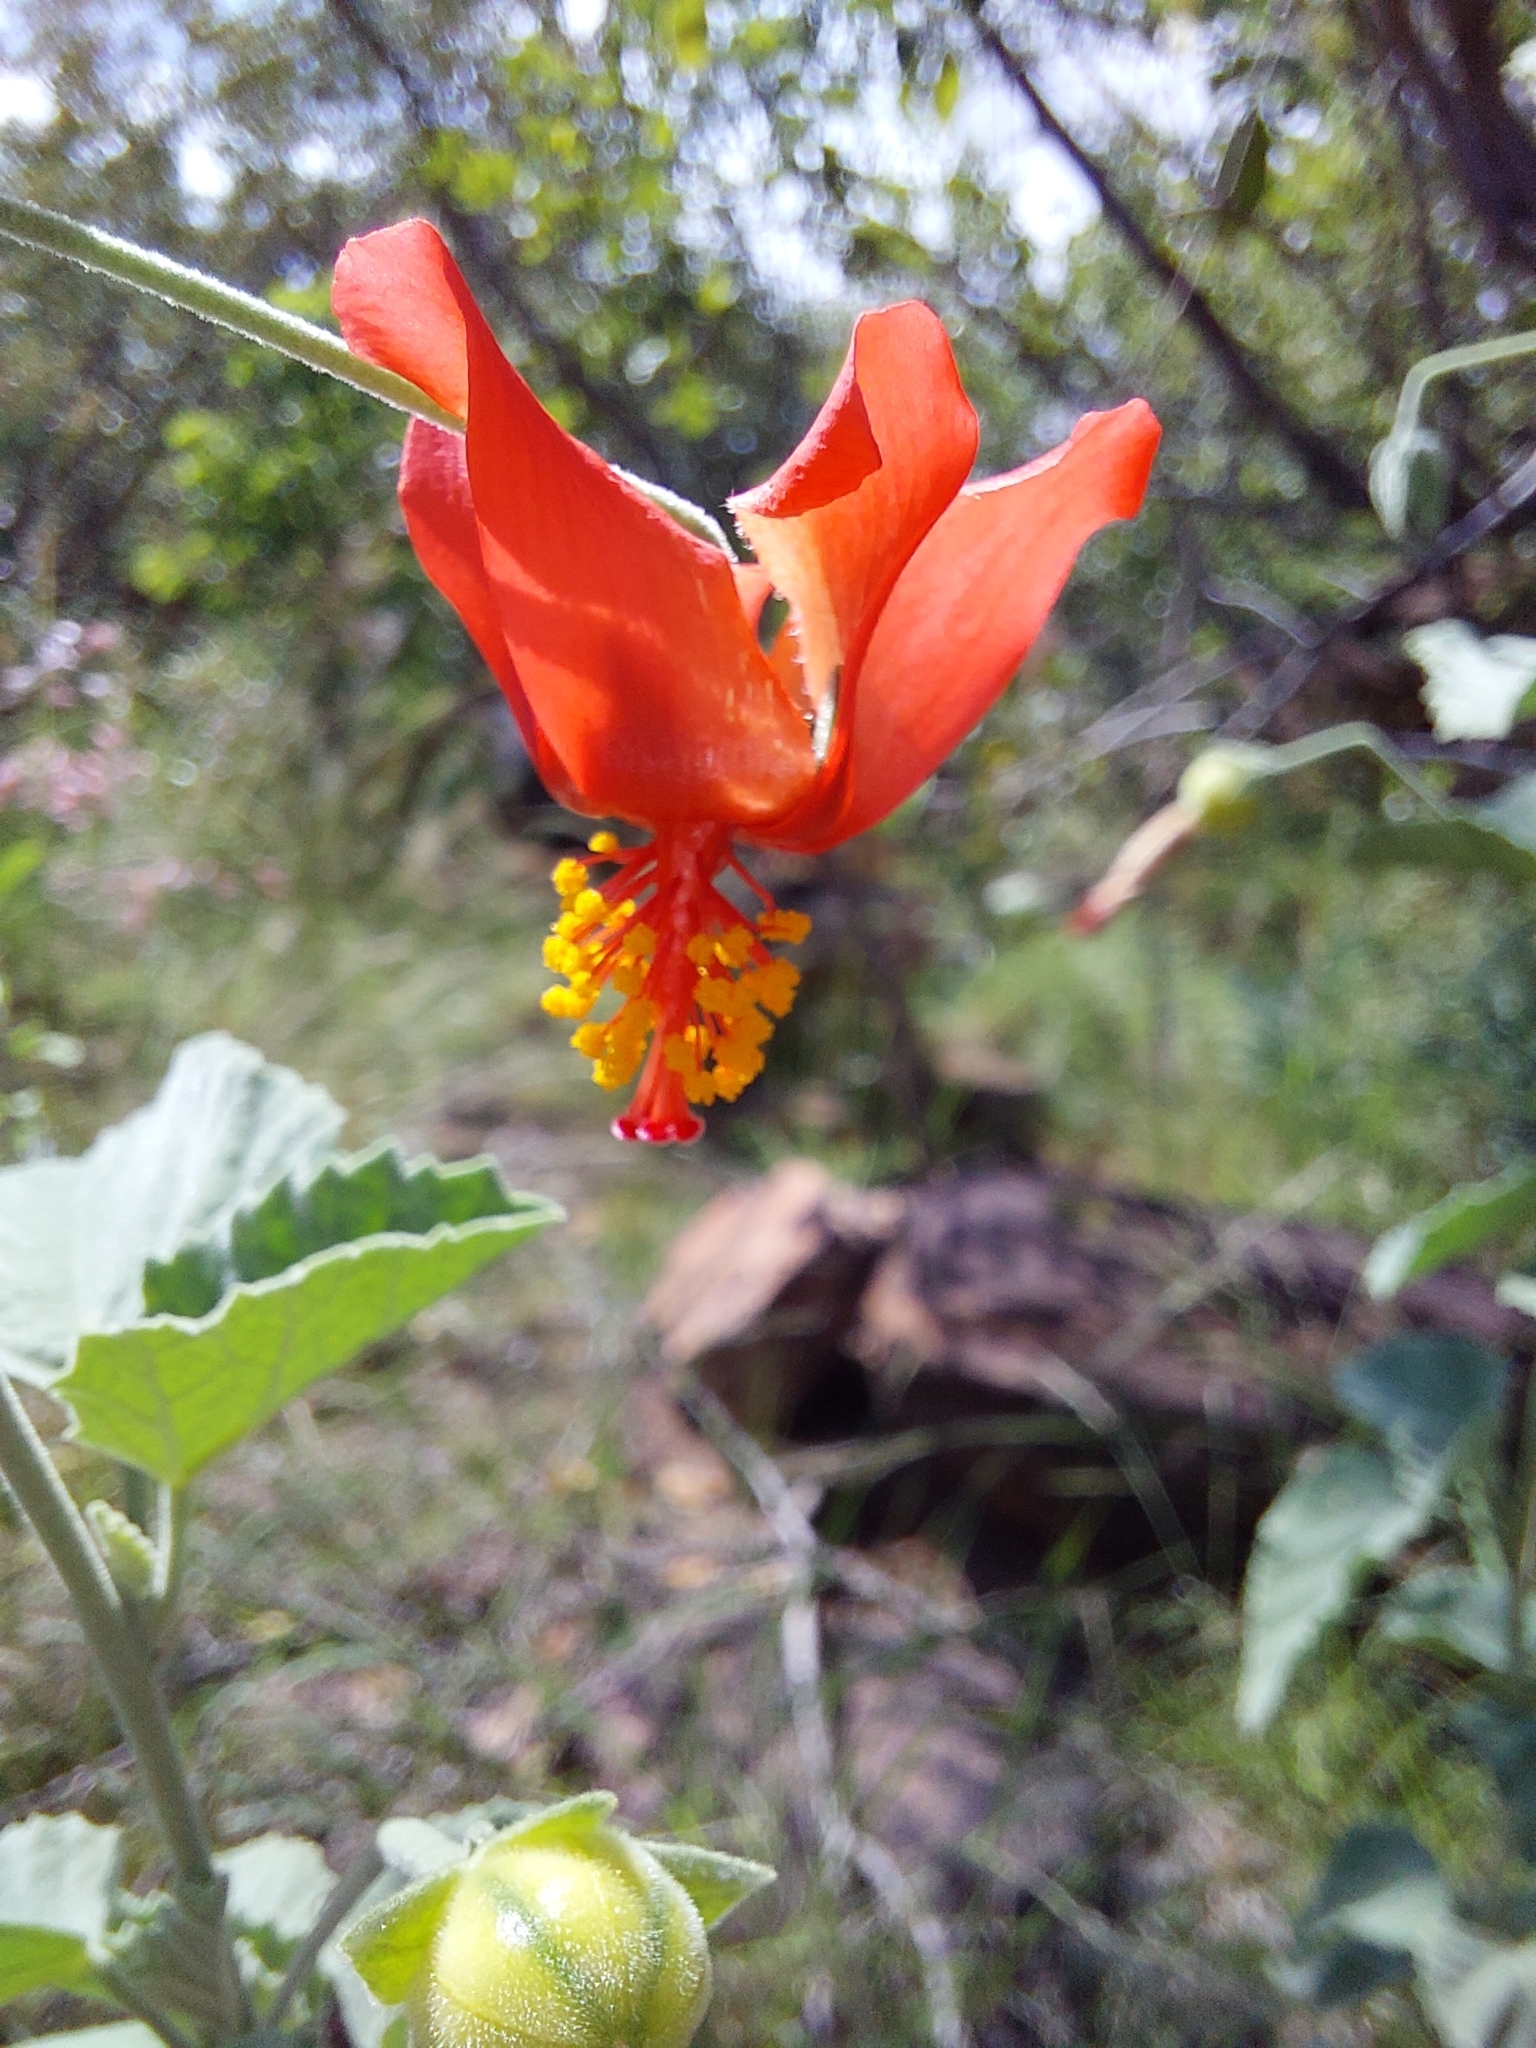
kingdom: Plantae
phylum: Tracheophyta
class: Magnoliopsida
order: Malvales
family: Malvaceae
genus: Hibiscus
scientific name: Hibiscus waterbergensis
